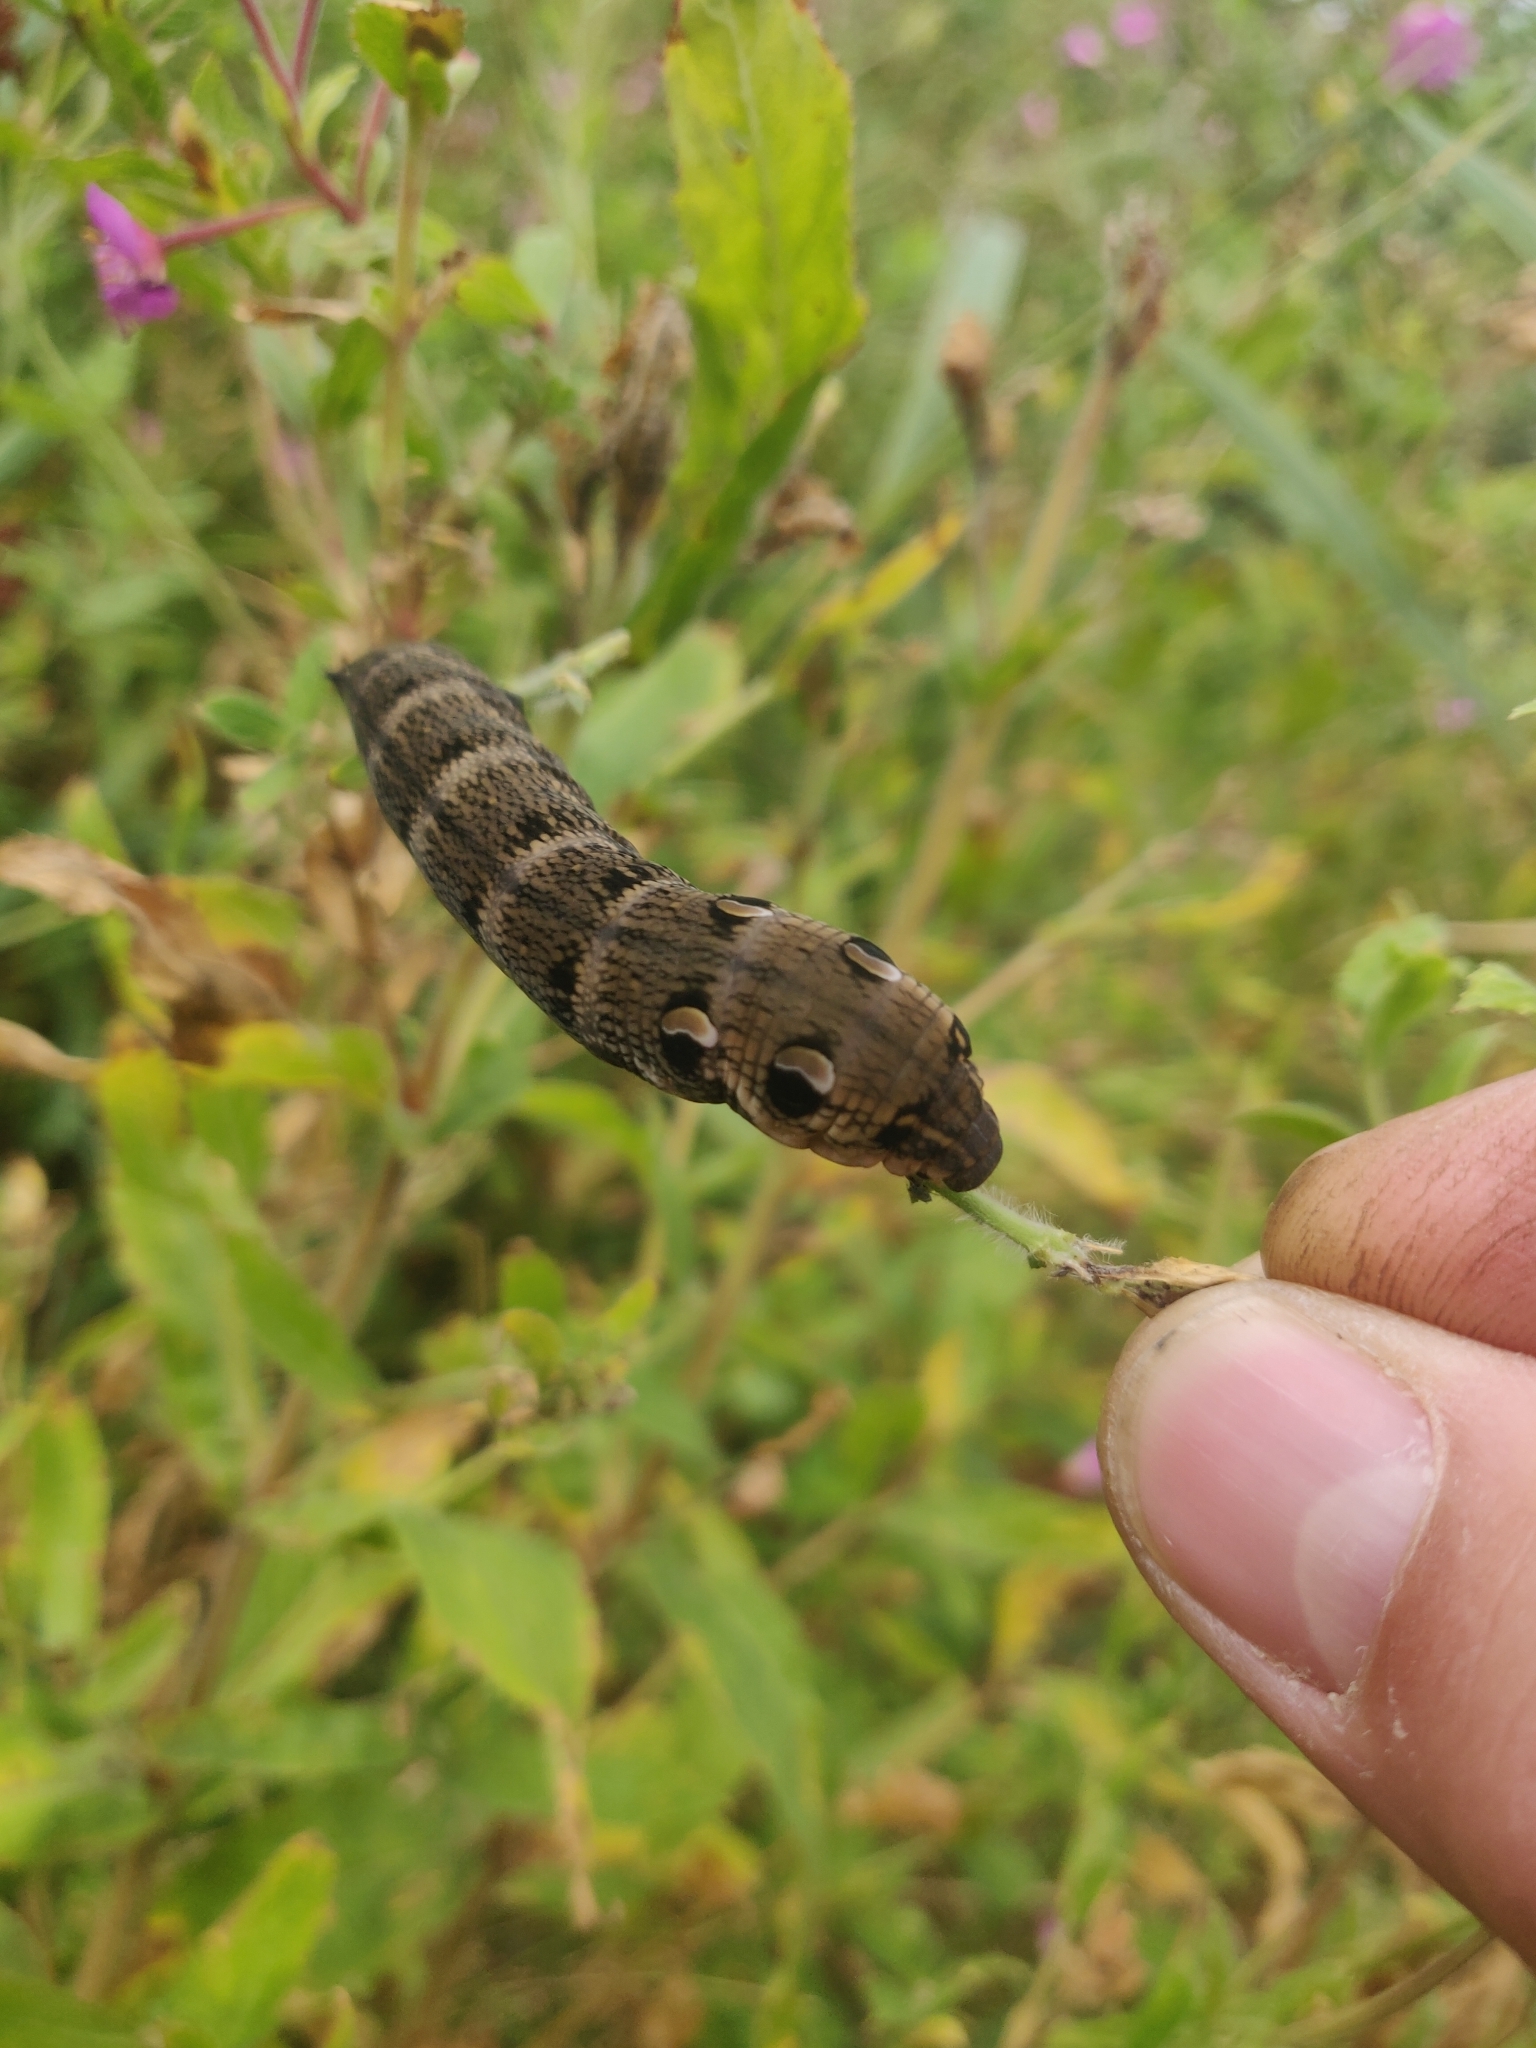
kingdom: Animalia
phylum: Arthropoda
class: Insecta
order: Lepidoptera
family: Sphingidae
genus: Deilephila
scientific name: Deilephila elpenor
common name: Elephant hawk-moth
